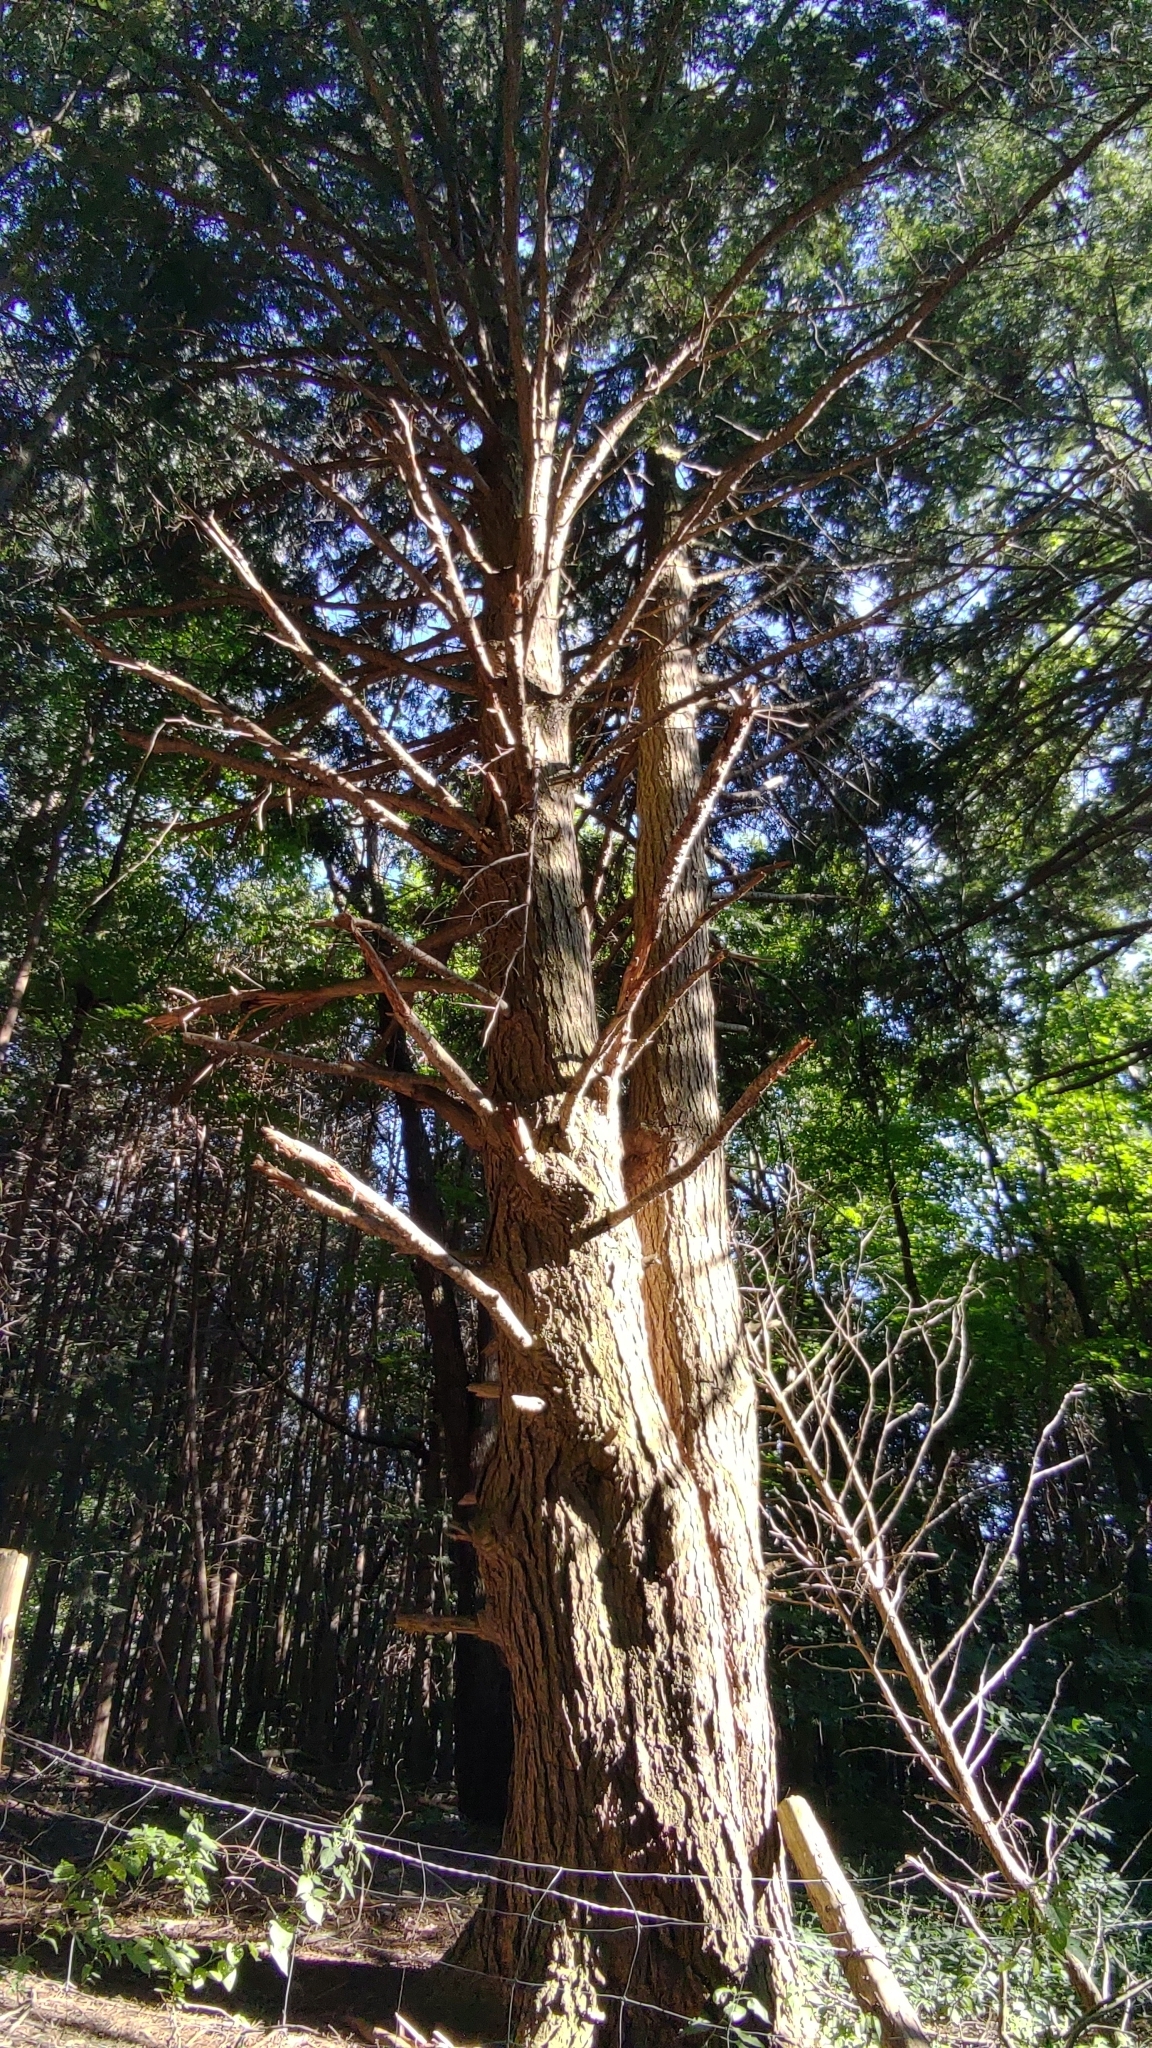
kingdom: Plantae
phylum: Tracheophyta
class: Pinopsida
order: Pinales
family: Pinaceae
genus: Tsuga
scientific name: Tsuga canadensis
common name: Eastern hemlock
